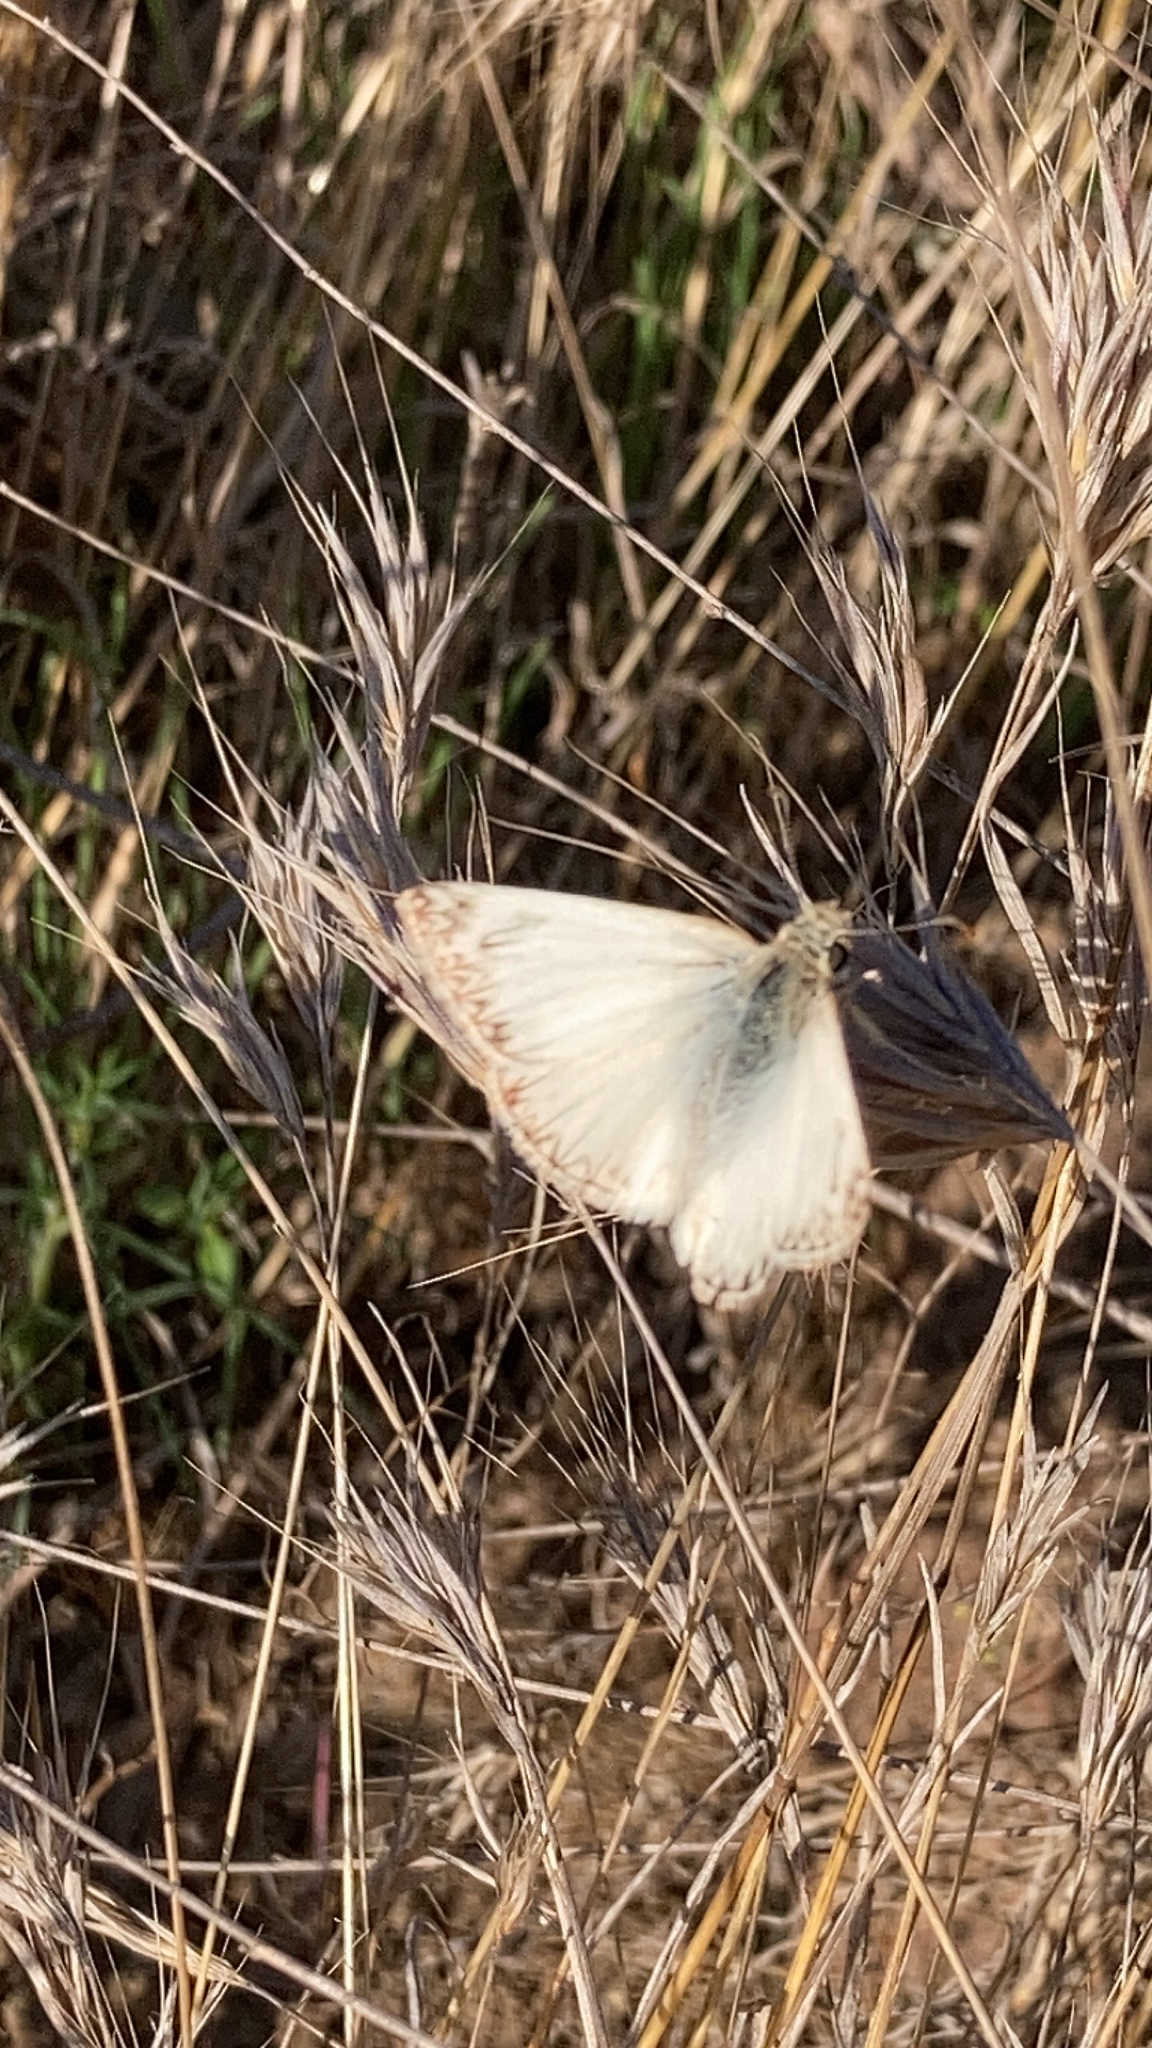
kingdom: Animalia
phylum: Arthropoda
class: Insecta
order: Lepidoptera
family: Hesperiidae
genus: Heliopetes
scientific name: Heliopetes ericetorum
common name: Northern white-skipper
